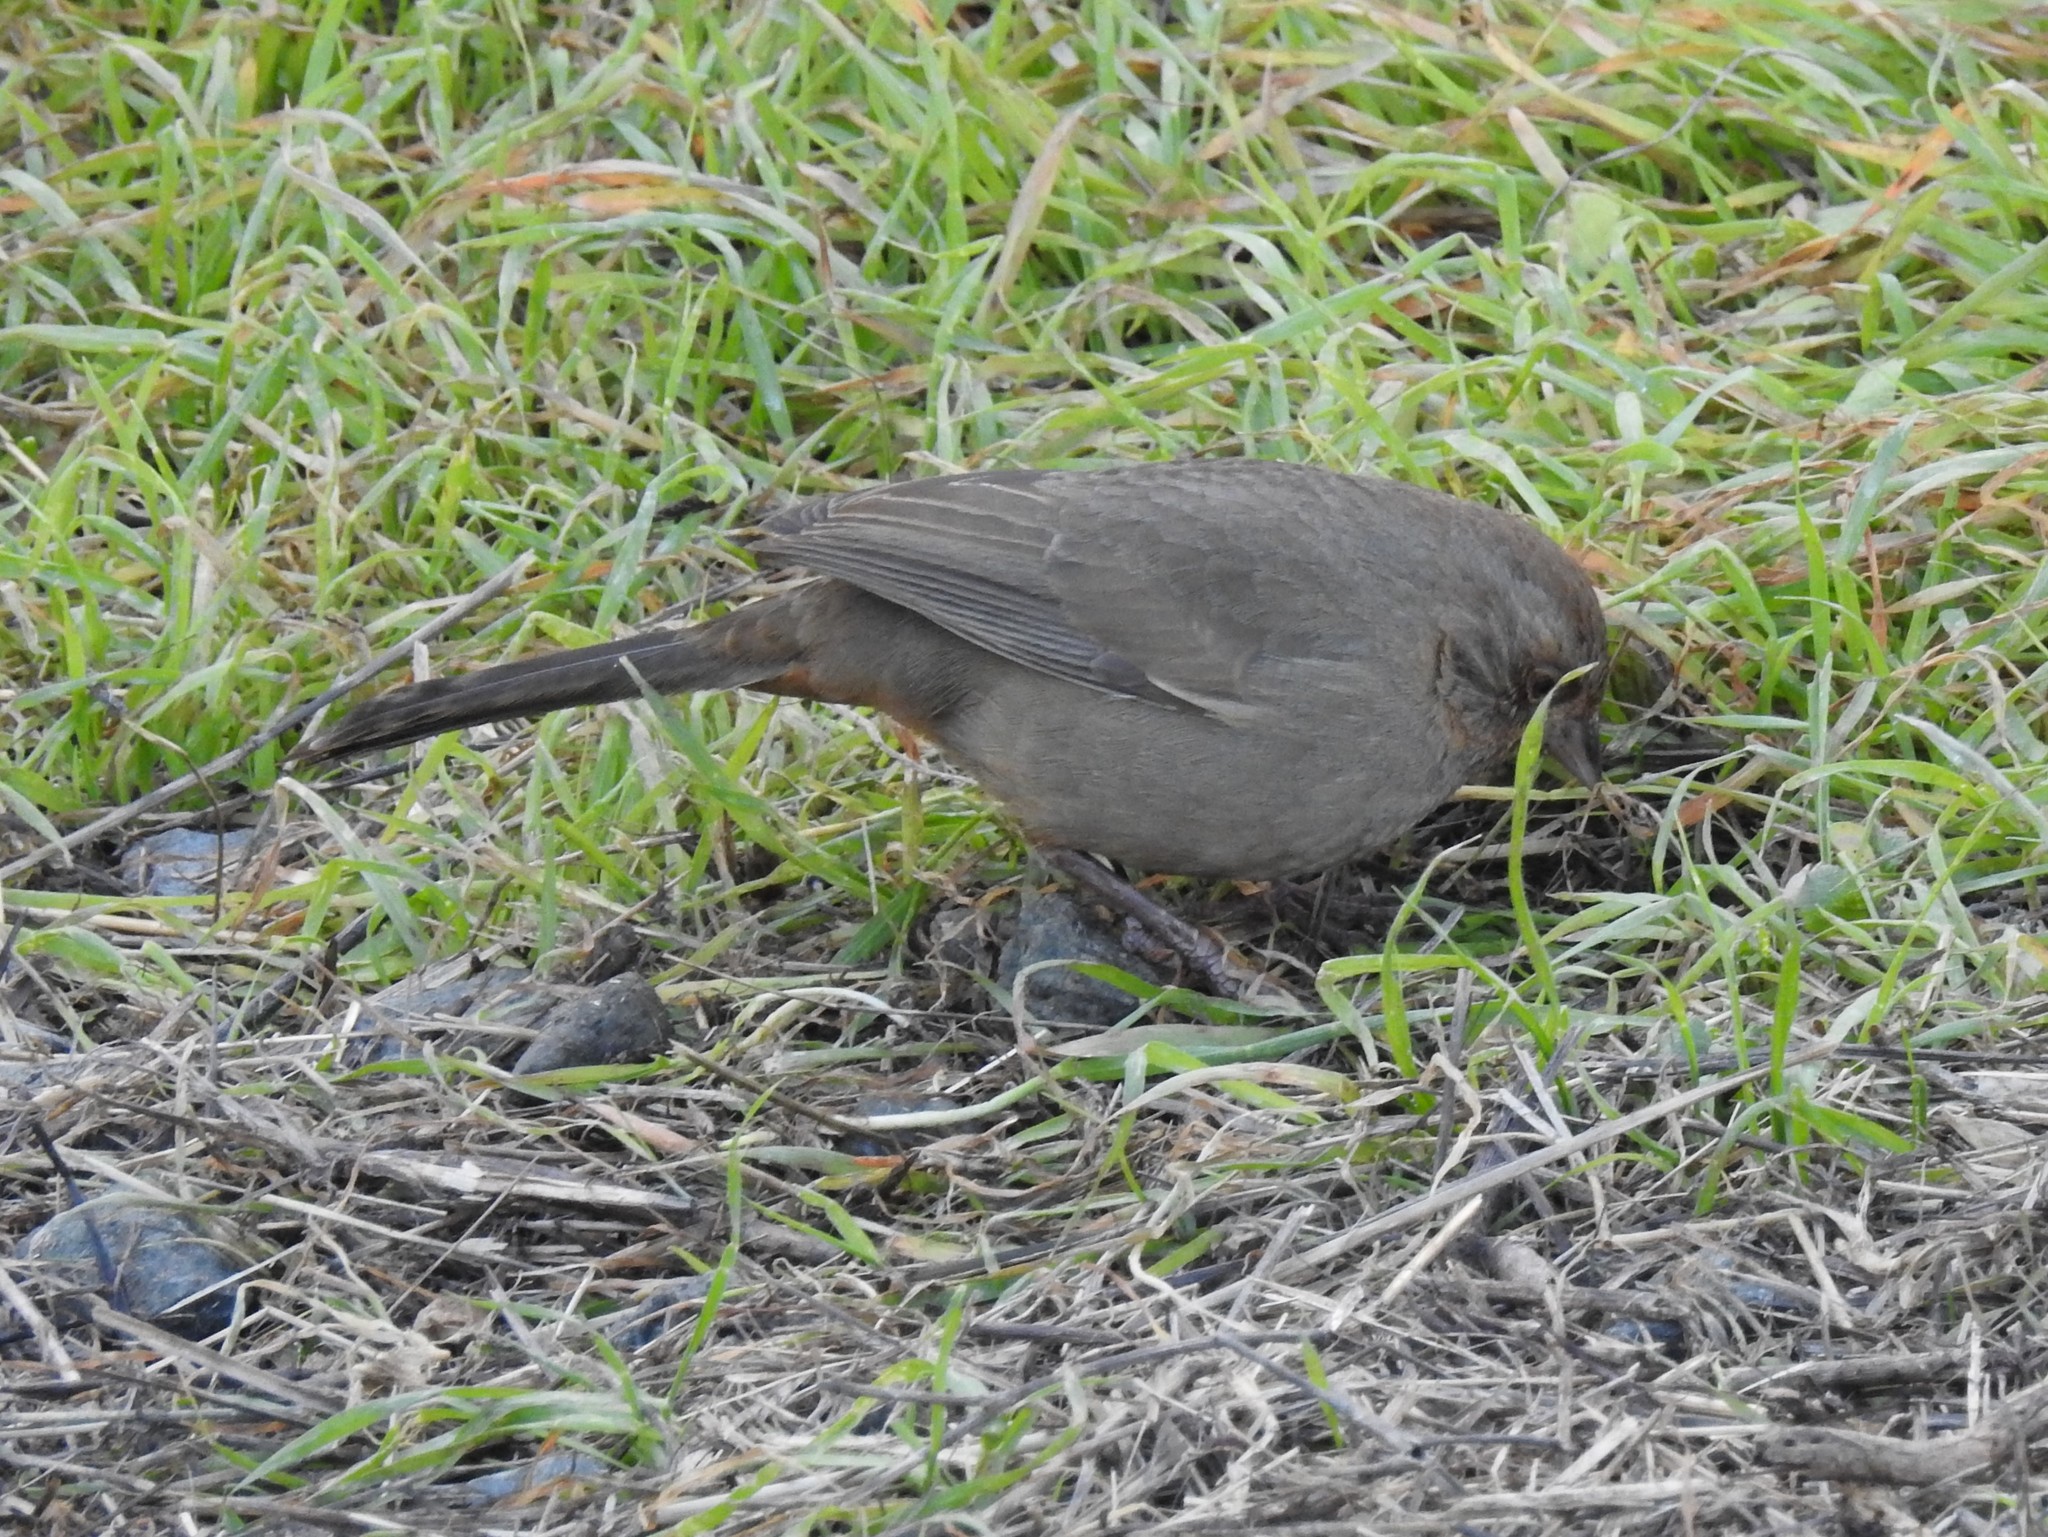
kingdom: Animalia
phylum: Chordata
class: Aves
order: Passeriformes
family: Passerellidae
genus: Melozone
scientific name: Melozone crissalis
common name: California towhee
